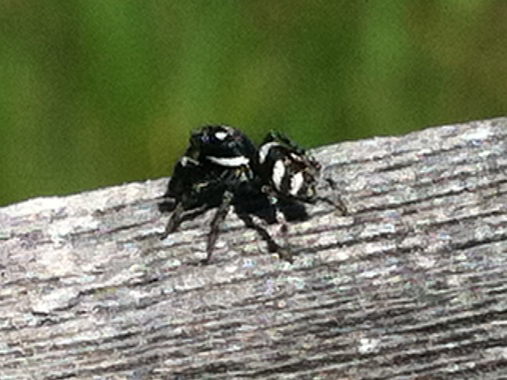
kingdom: Animalia
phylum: Arthropoda
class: Arachnida
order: Araneae
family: Salticidae
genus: Salticus
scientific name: Salticus scenicus
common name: Zebra jumper
